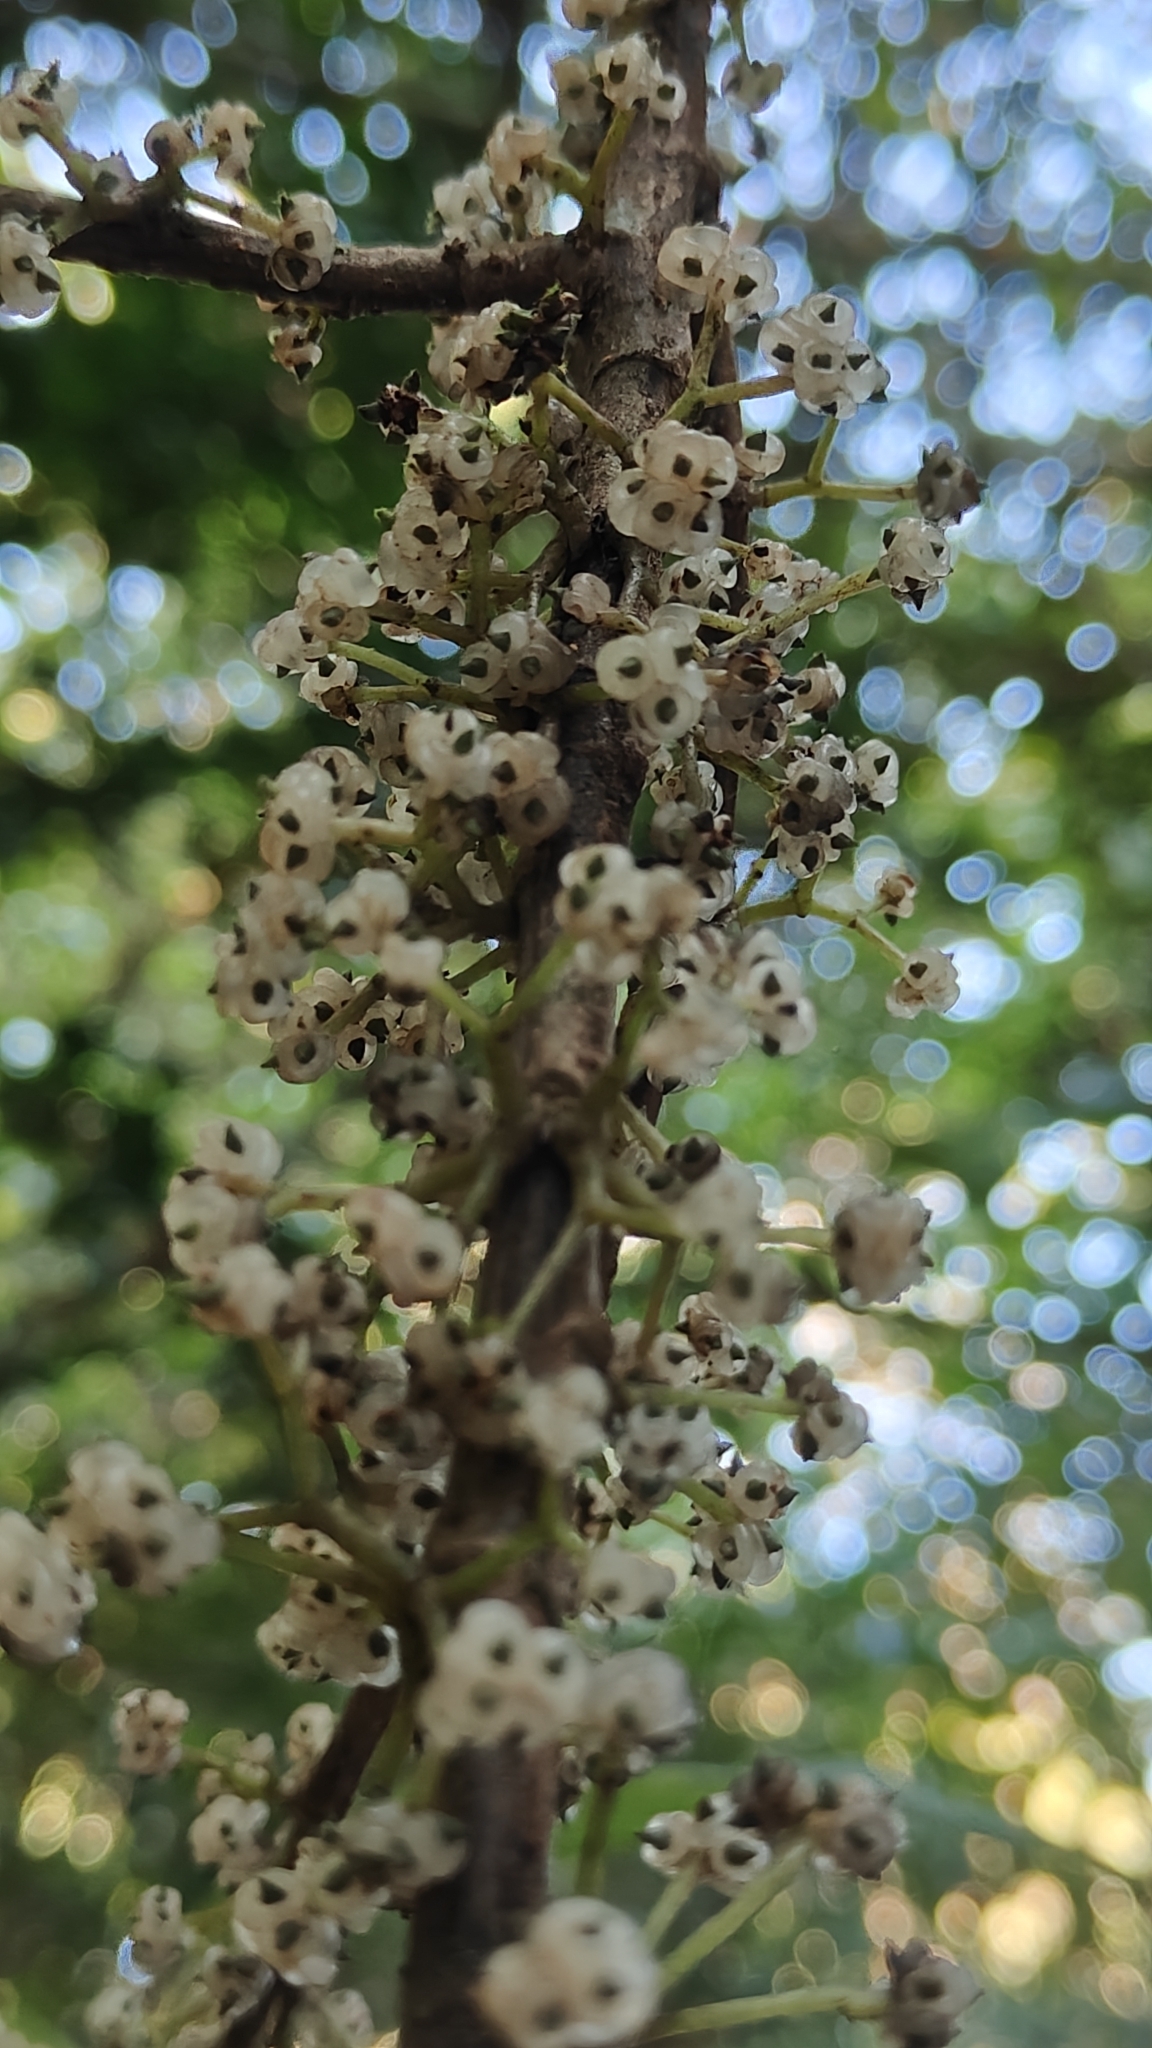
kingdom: Plantae
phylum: Tracheophyta
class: Magnoliopsida
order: Rosales
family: Urticaceae
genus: Oreocnide
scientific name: Oreocnide integrifolia
